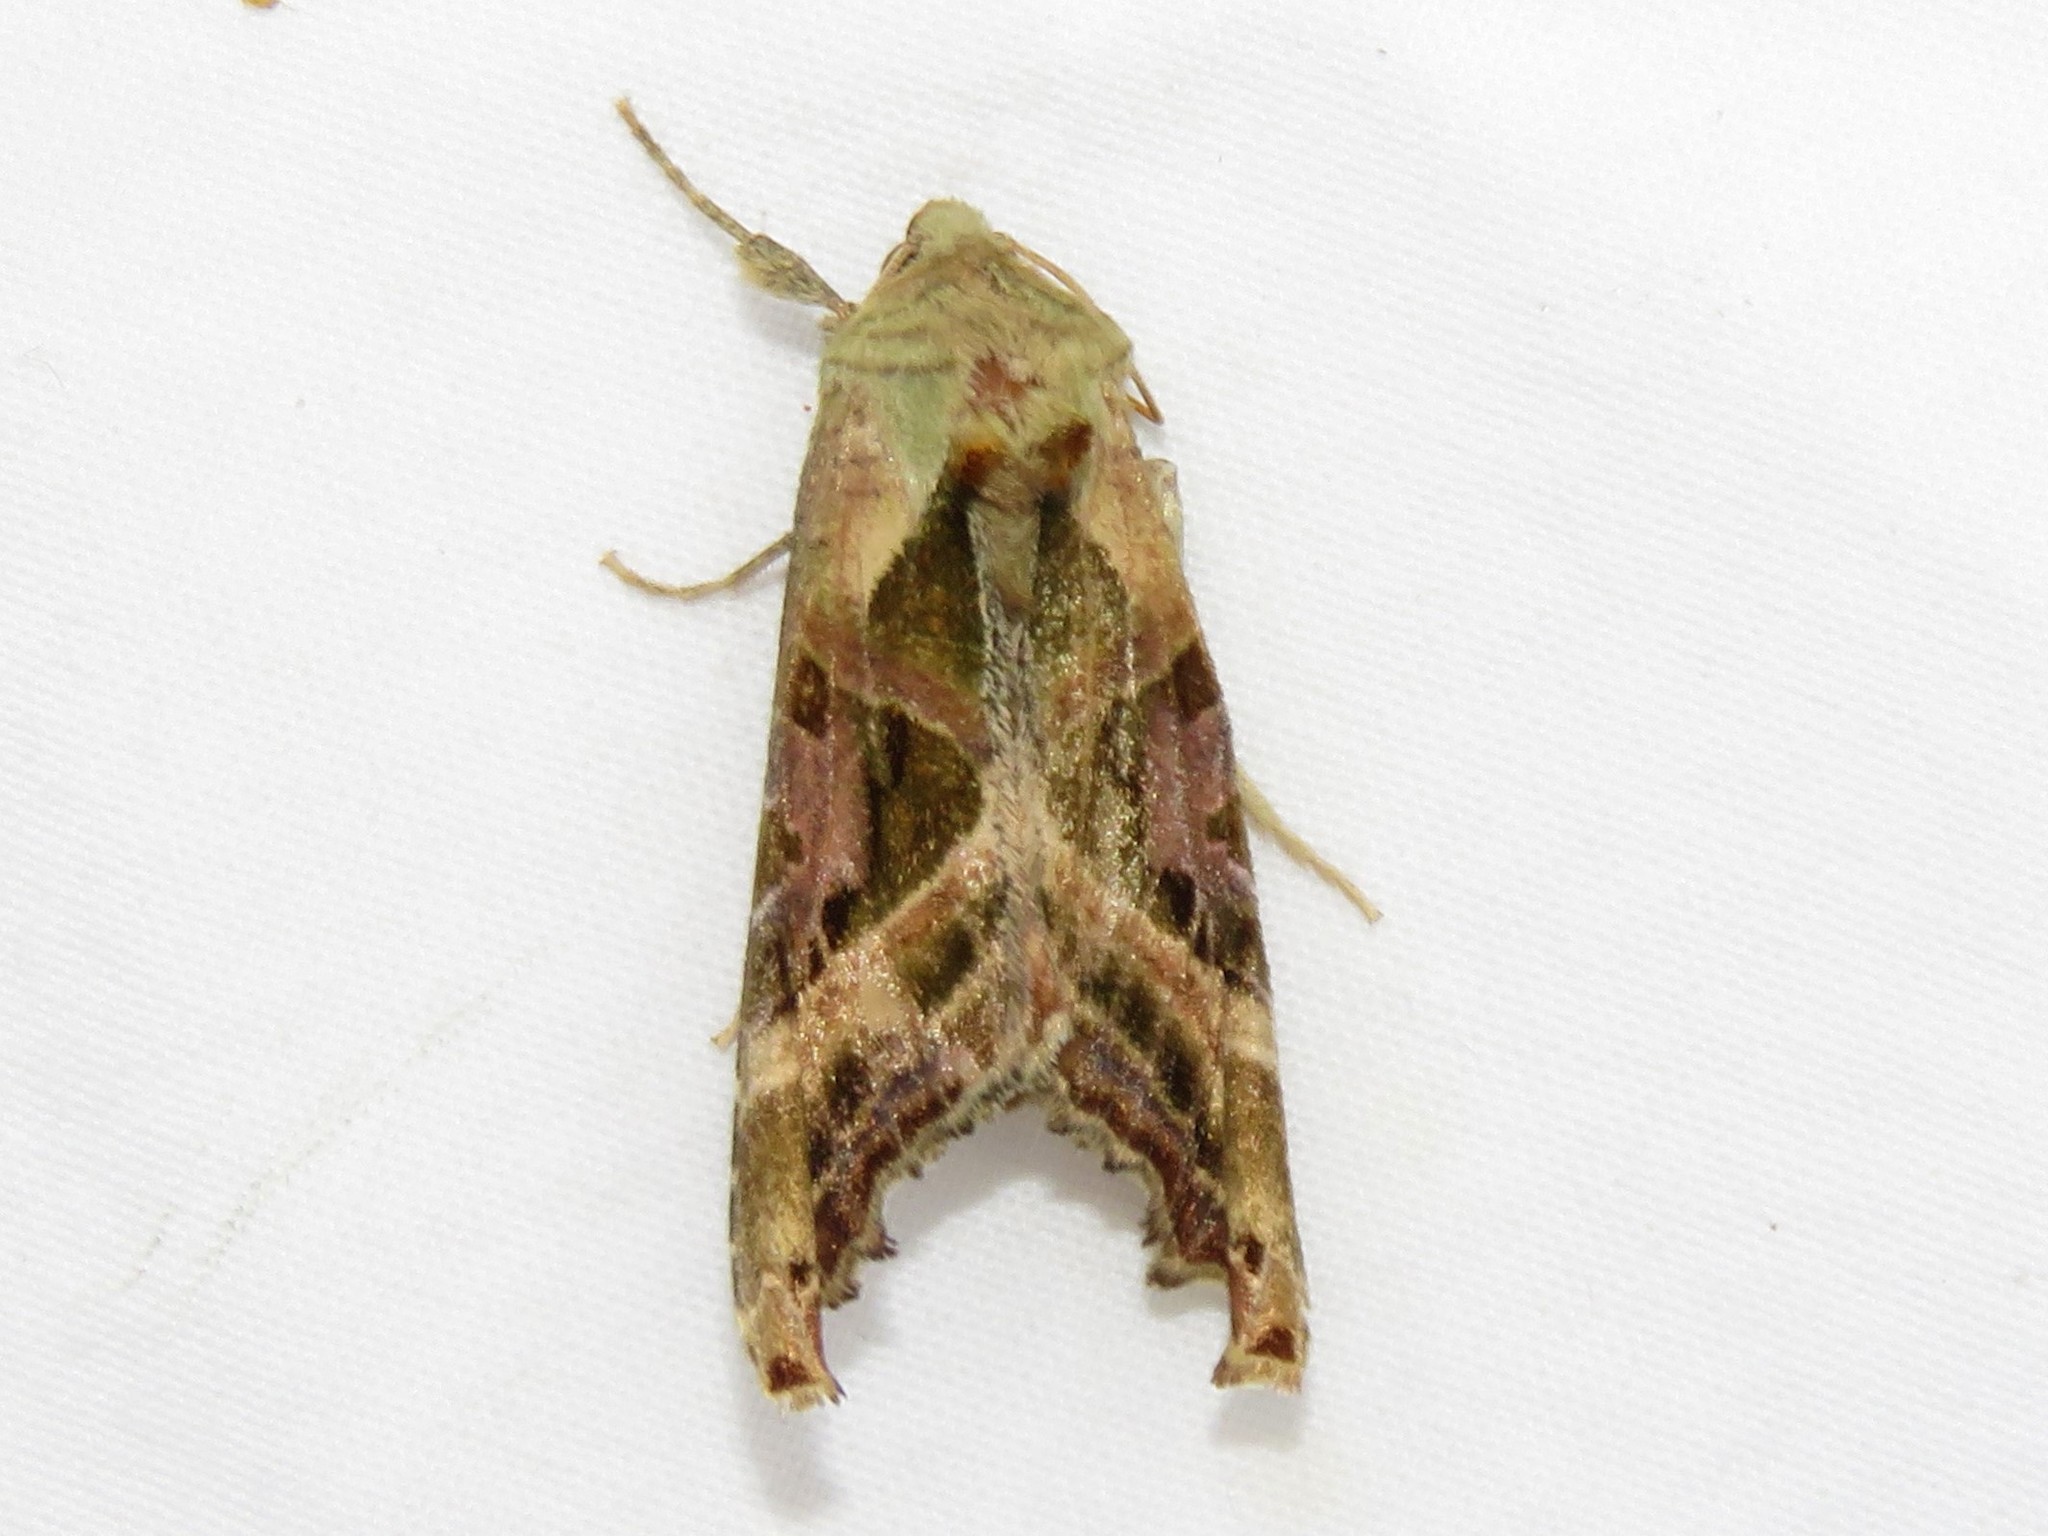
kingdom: Animalia
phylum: Arthropoda
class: Insecta
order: Lepidoptera
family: Noctuidae
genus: Phlogophora
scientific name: Phlogophora iris
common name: Olive angle shades
